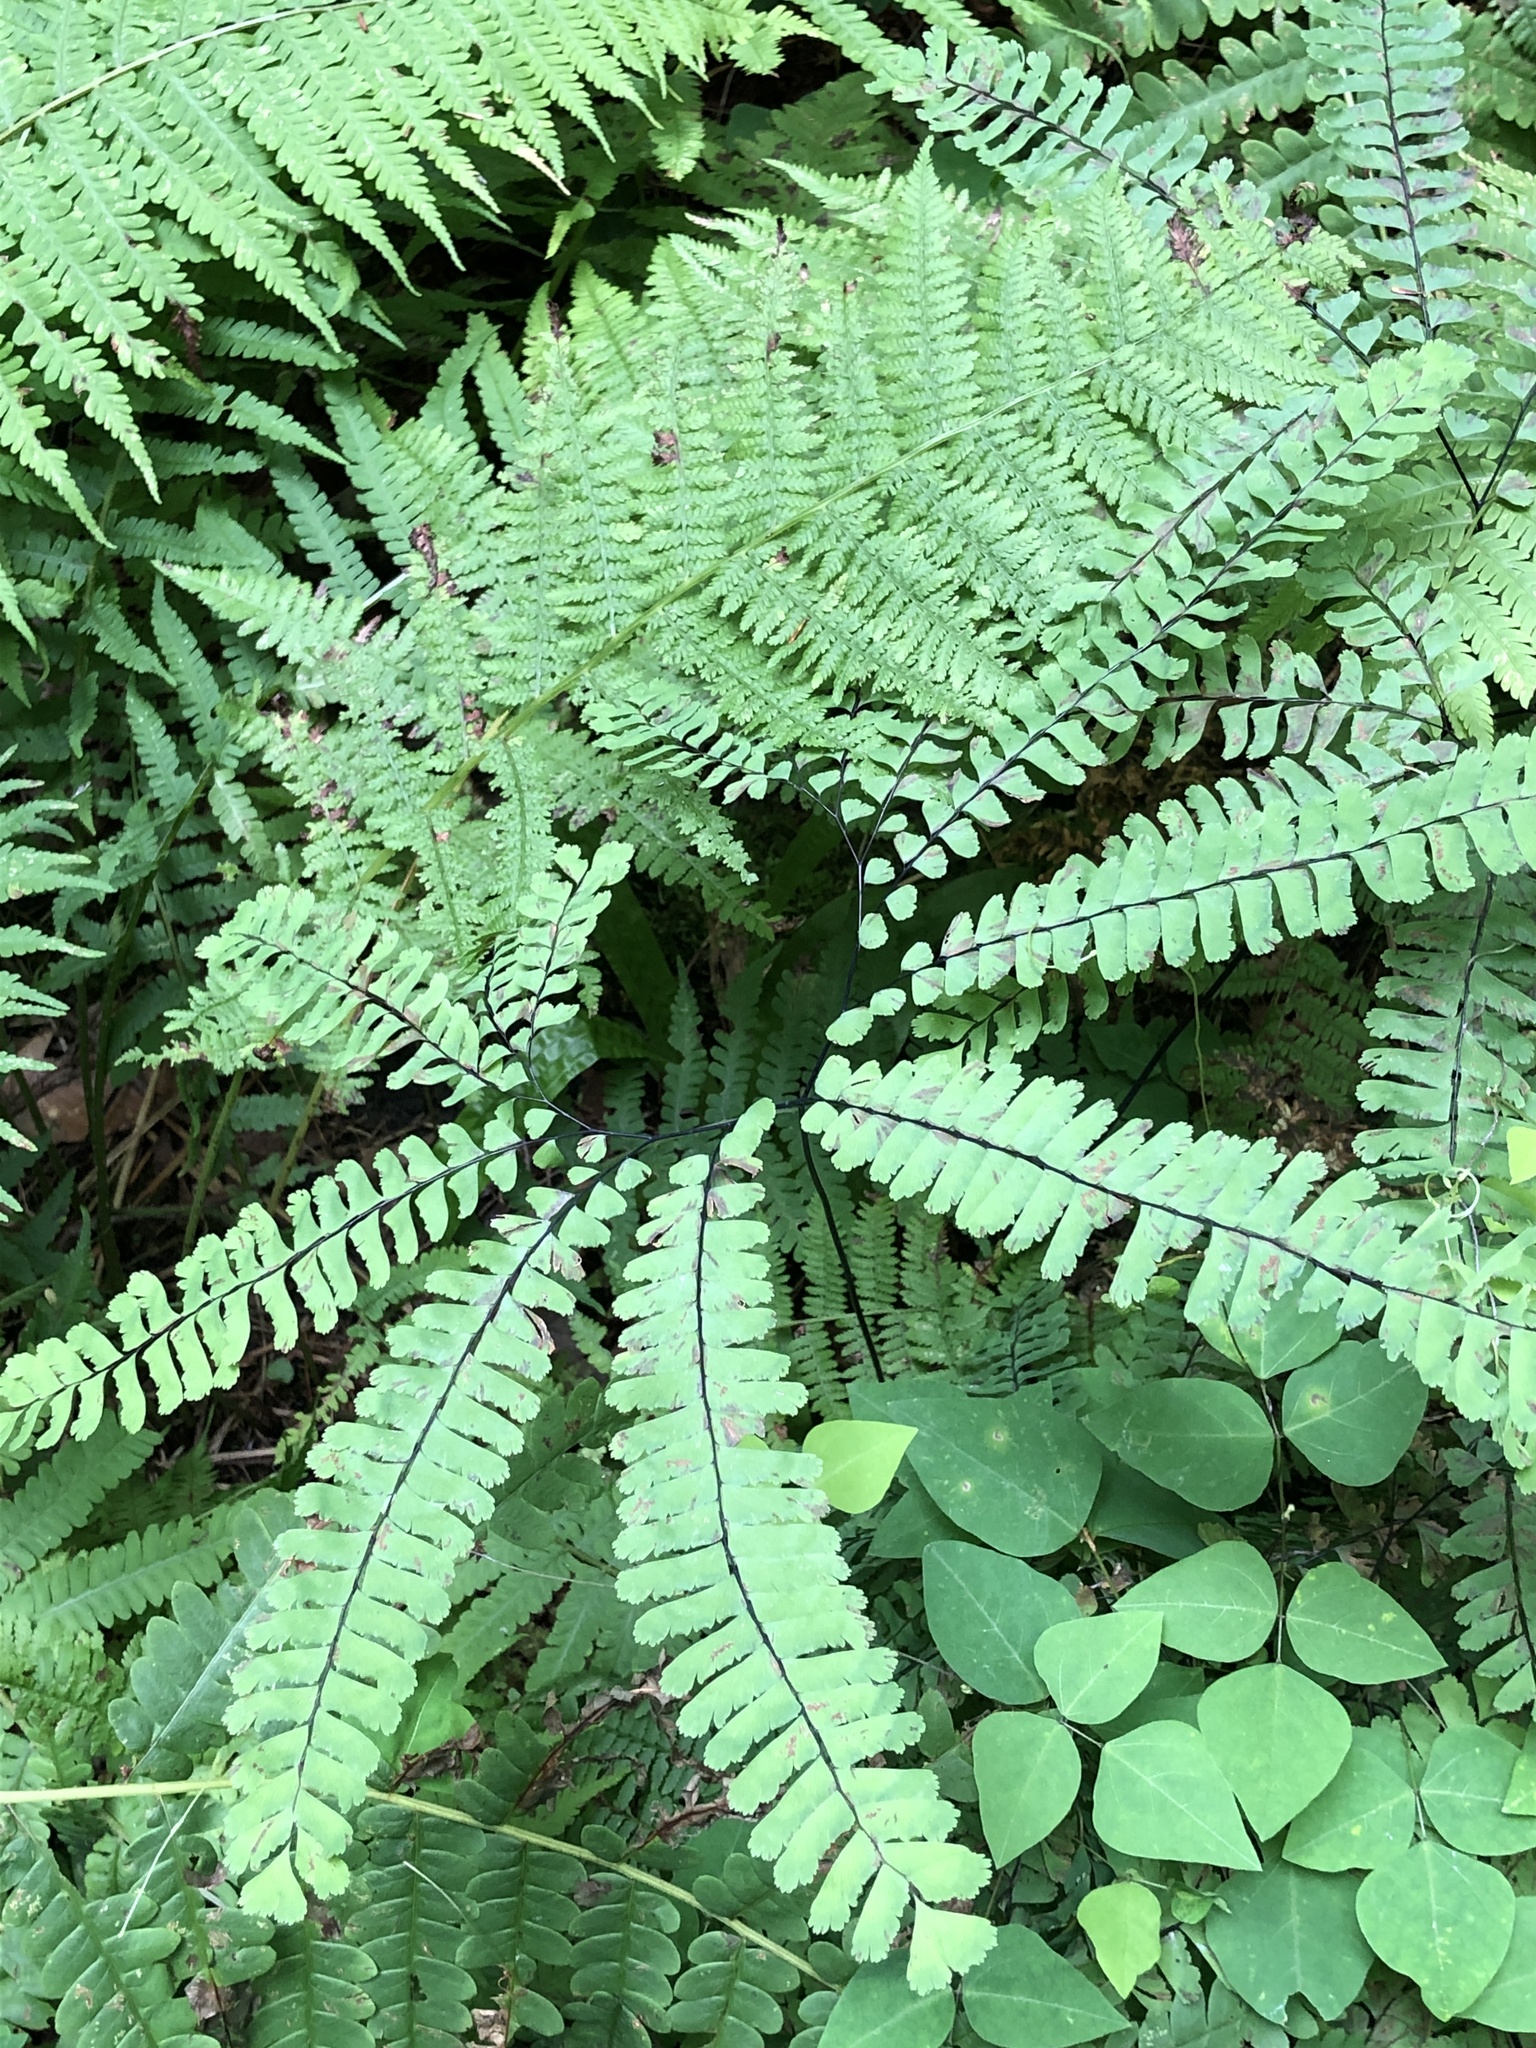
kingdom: Plantae
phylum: Tracheophyta
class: Polypodiopsida
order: Polypodiales
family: Pteridaceae
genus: Adiantum
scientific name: Adiantum pedatum
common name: Five-finger fern
